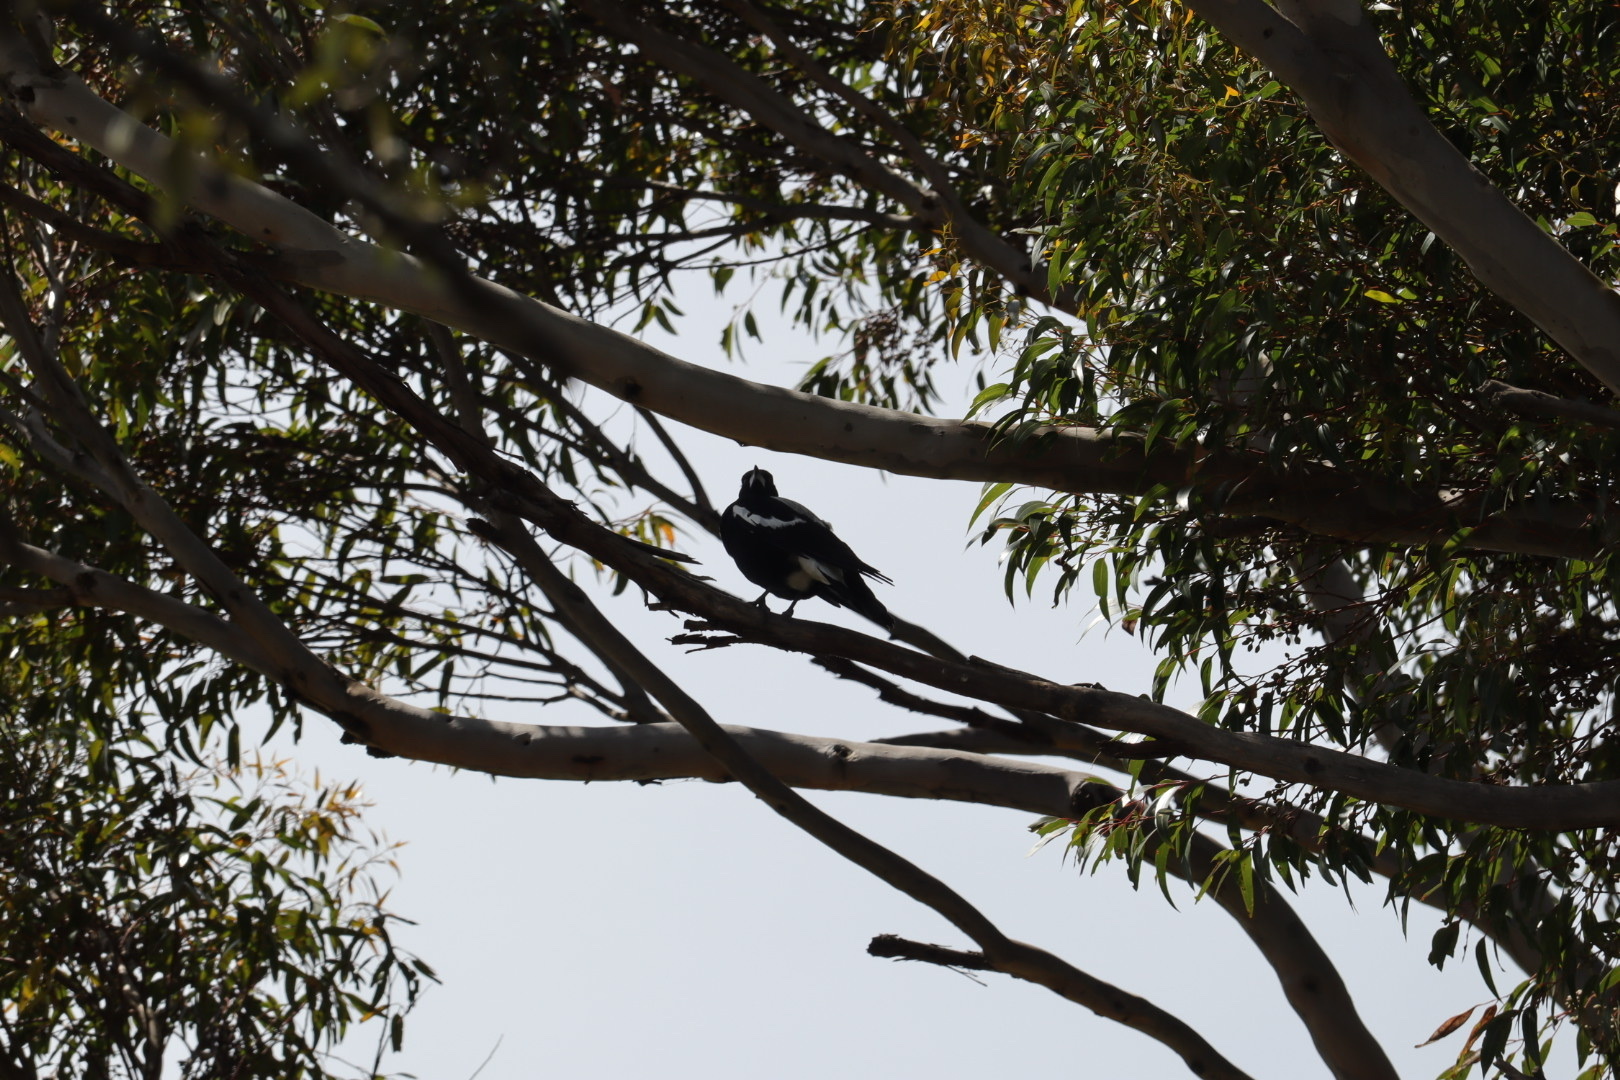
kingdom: Animalia
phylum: Chordata
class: Aves
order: Passeriformes
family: Cracticidae
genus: Gymnorhina
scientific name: Gymnorhina tibicen
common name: Australian magpie
